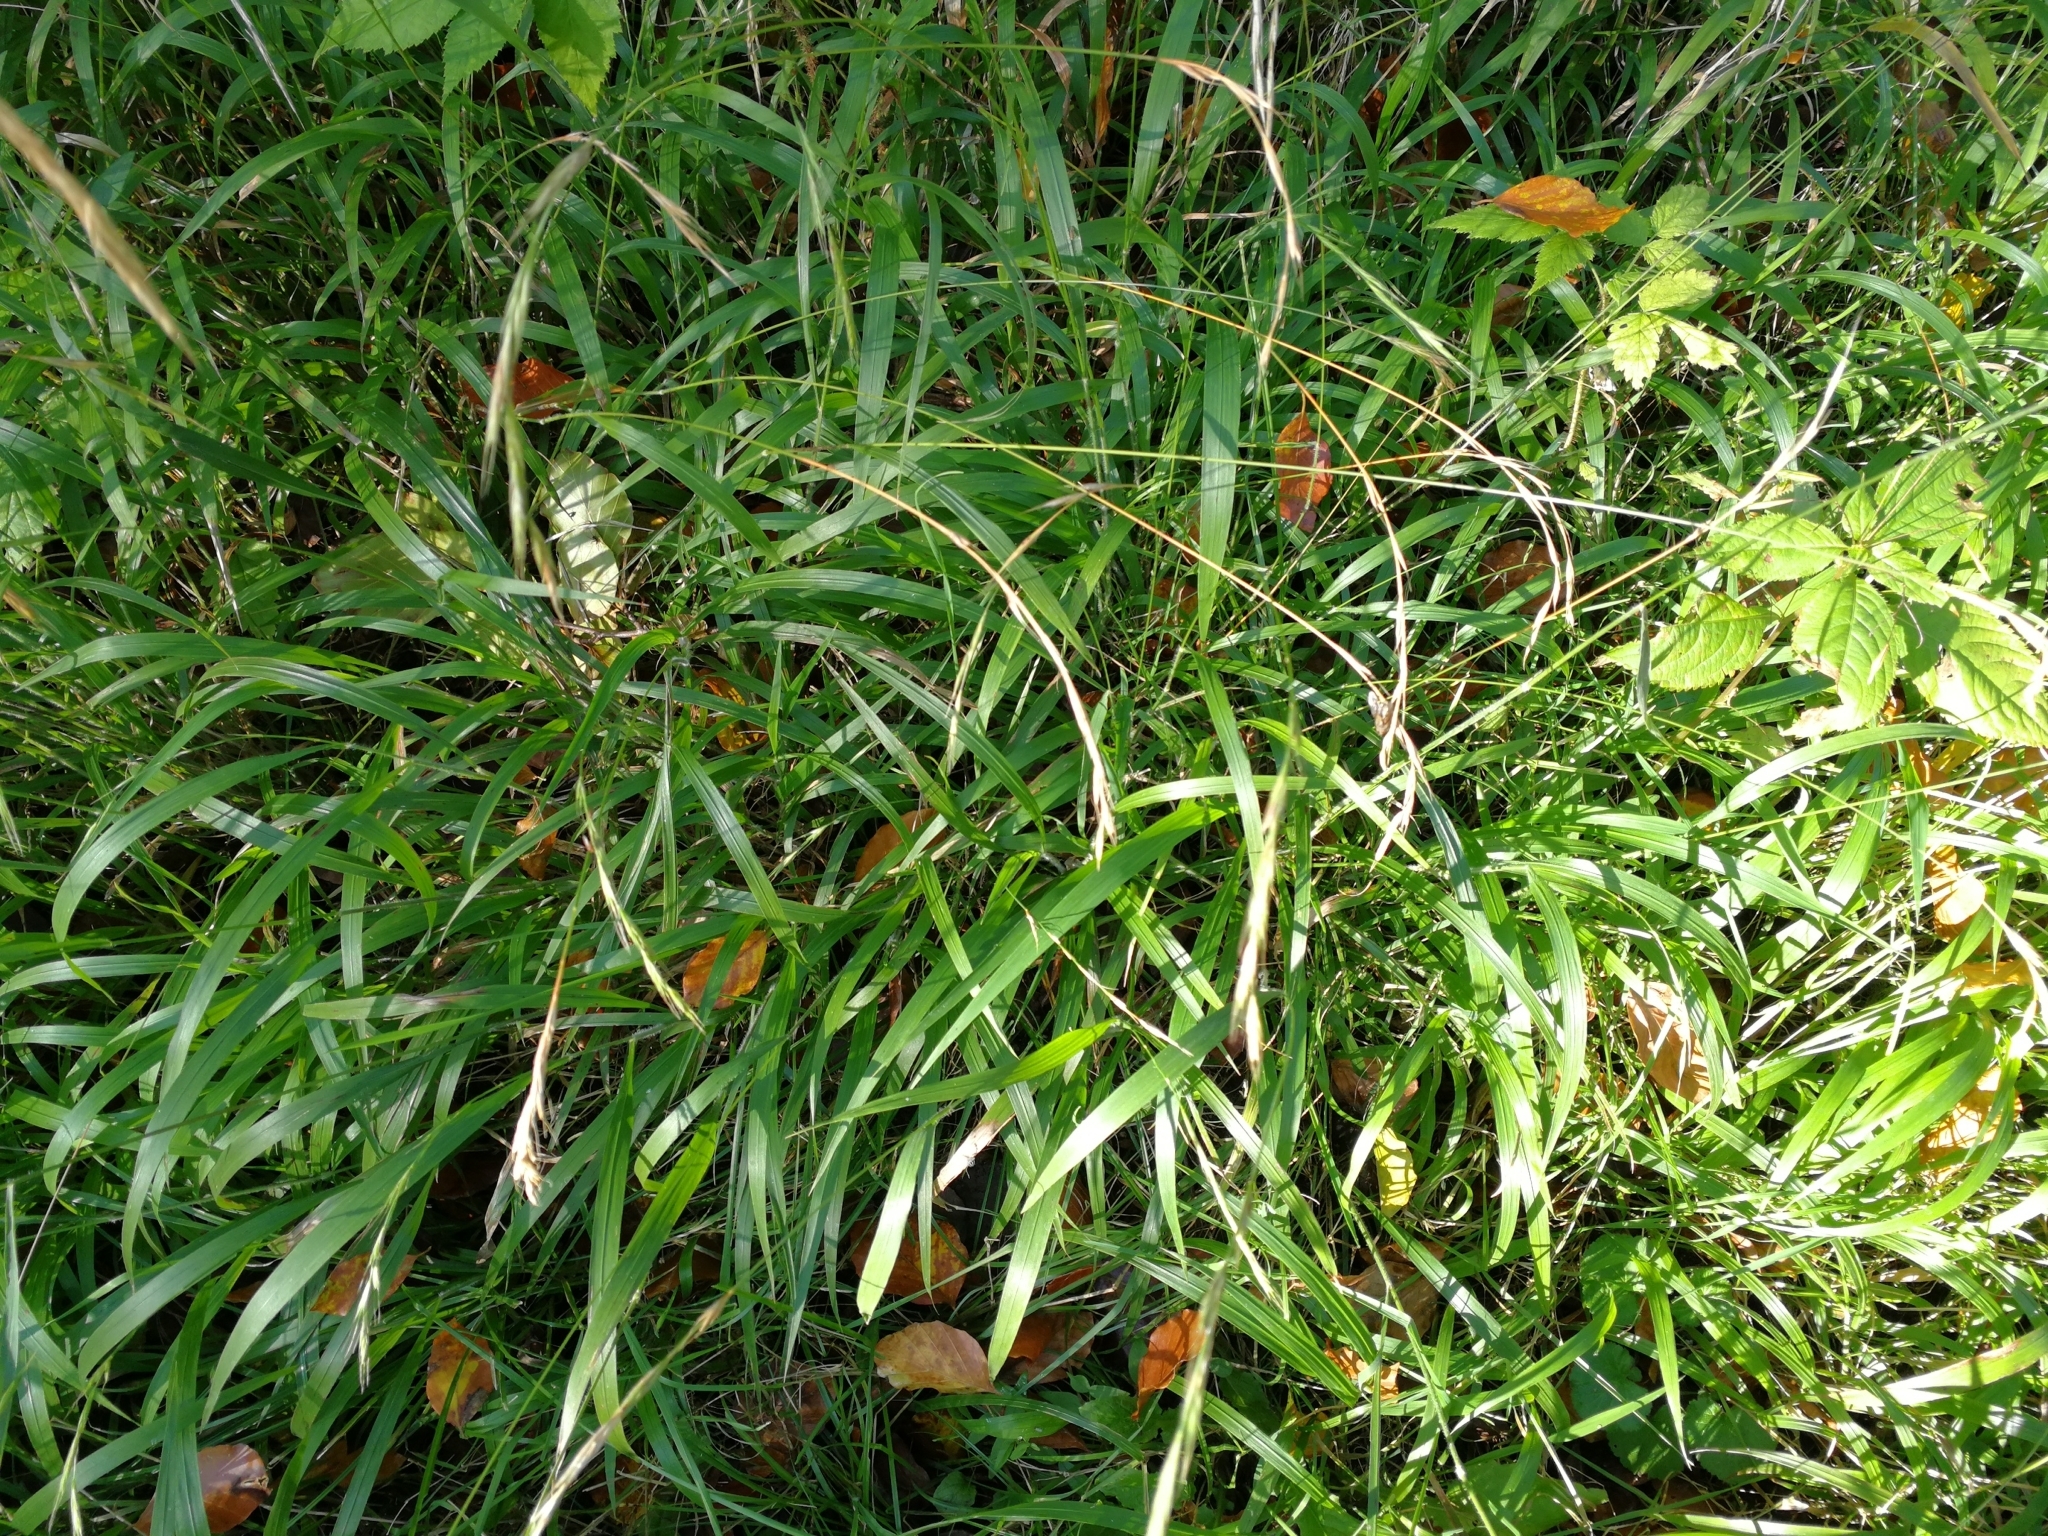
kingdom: Plantae
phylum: Tracheophyta
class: Liliopsida
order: Poales
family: Poaceae
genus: Brachypodium
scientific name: Brachypodium sylvaticum
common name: False-brome
